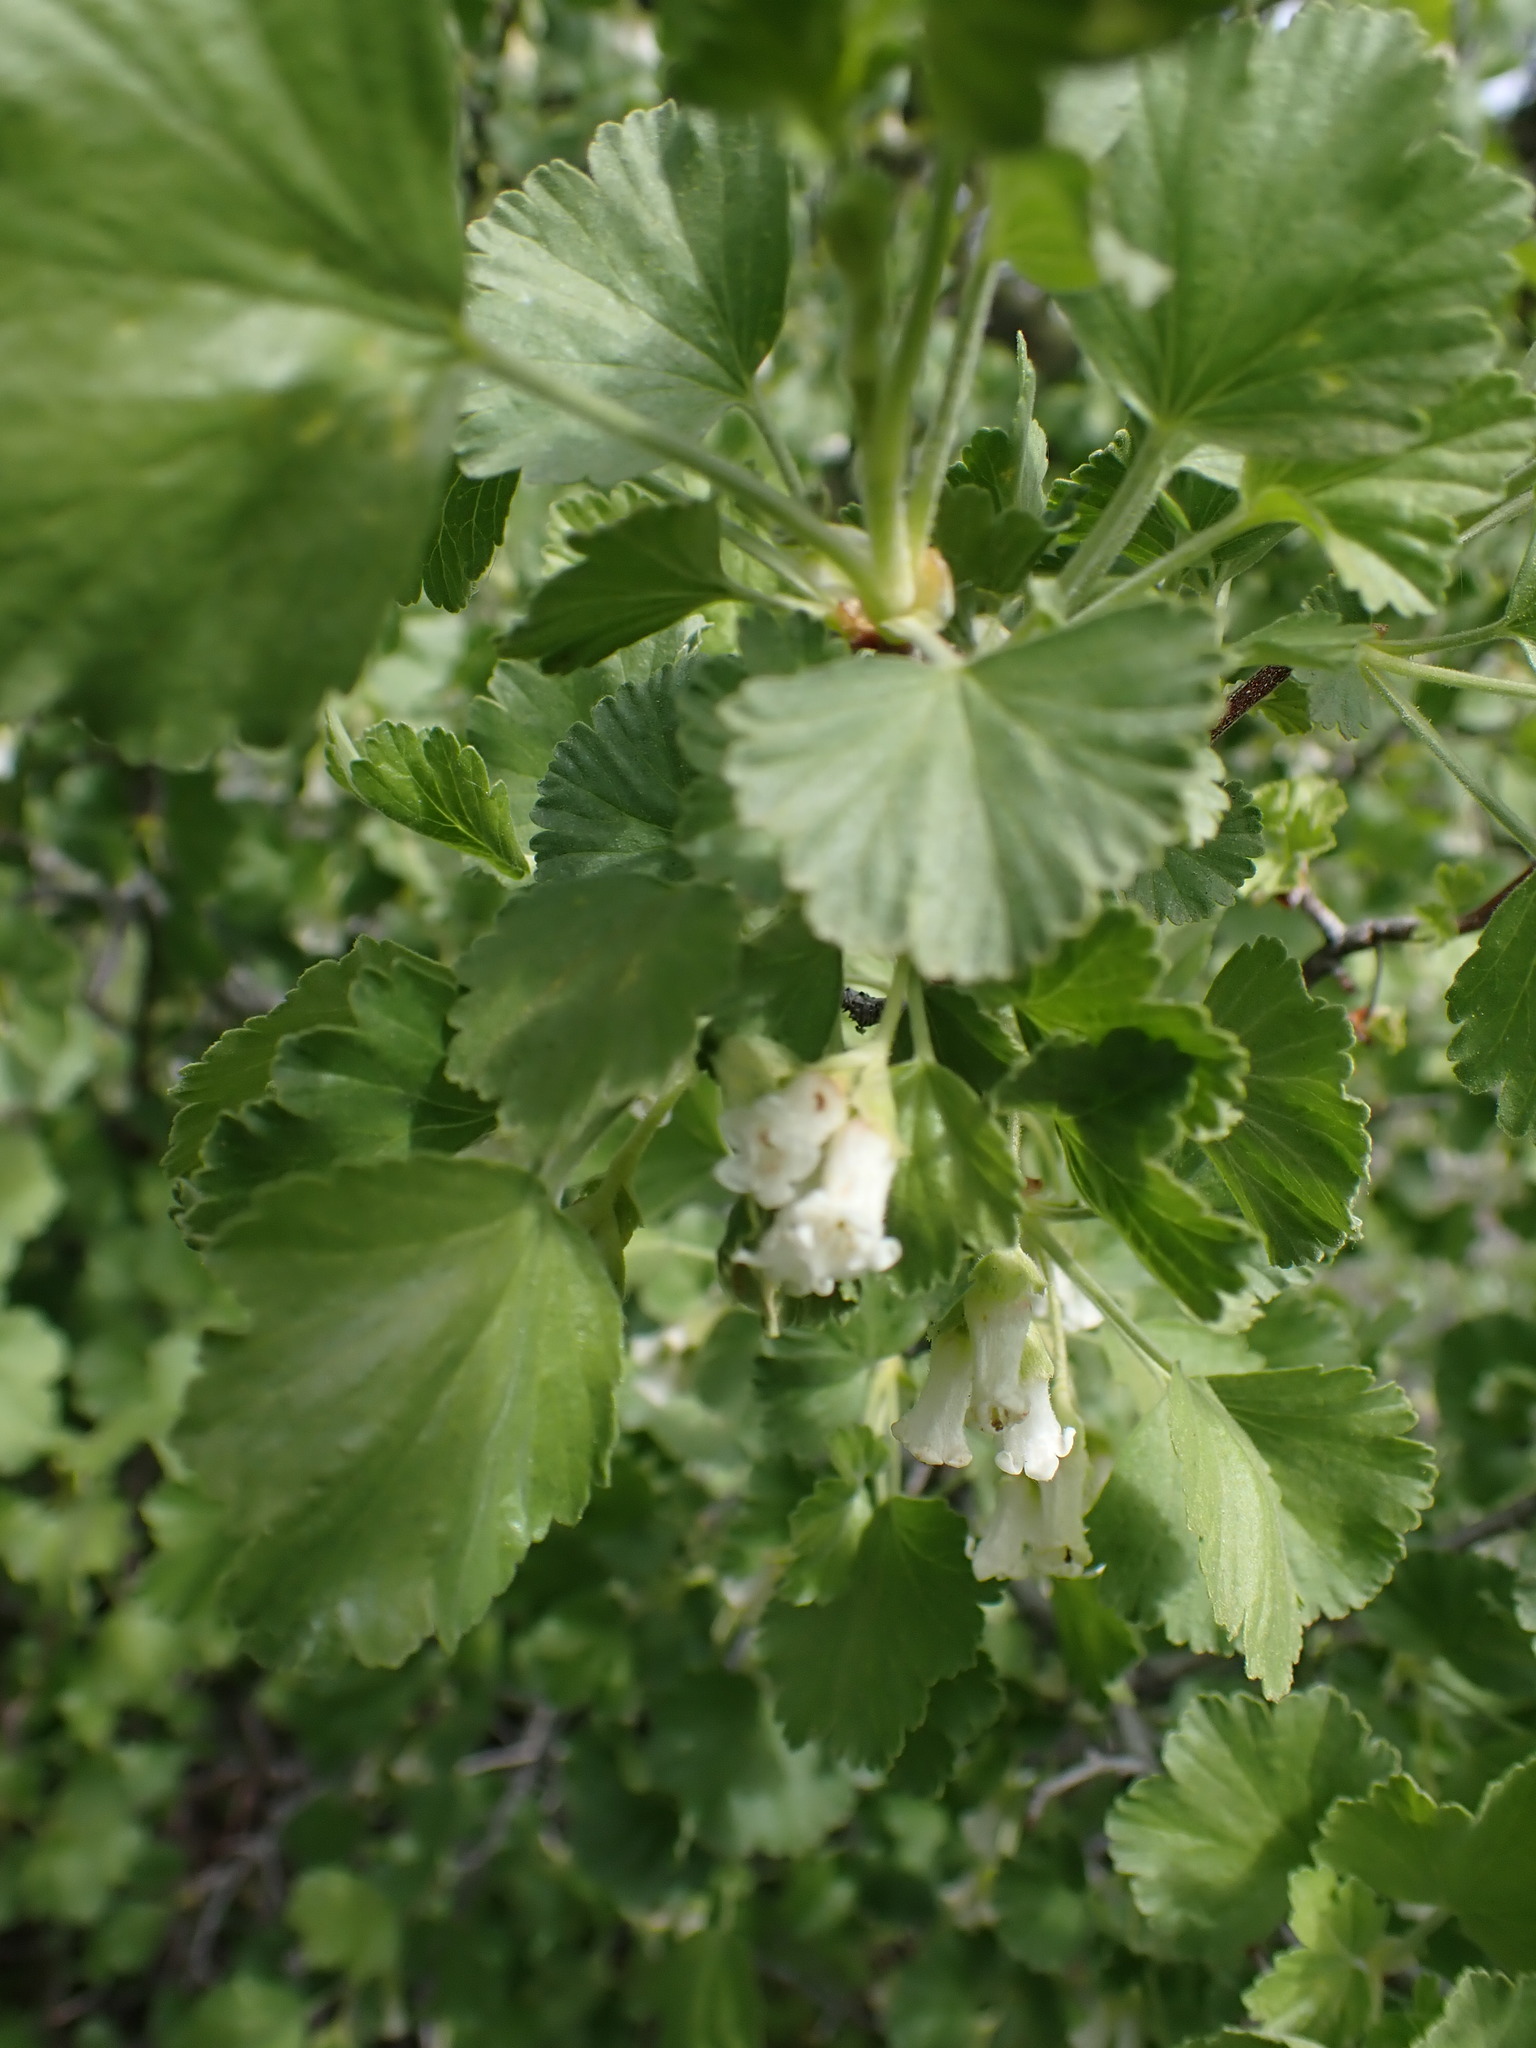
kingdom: Plantae
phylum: Tracheophyta
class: Magnoliopsida
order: Saxifragales
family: Grossulariaceae
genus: Ribes
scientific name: Ribes cereum
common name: Wax currant
